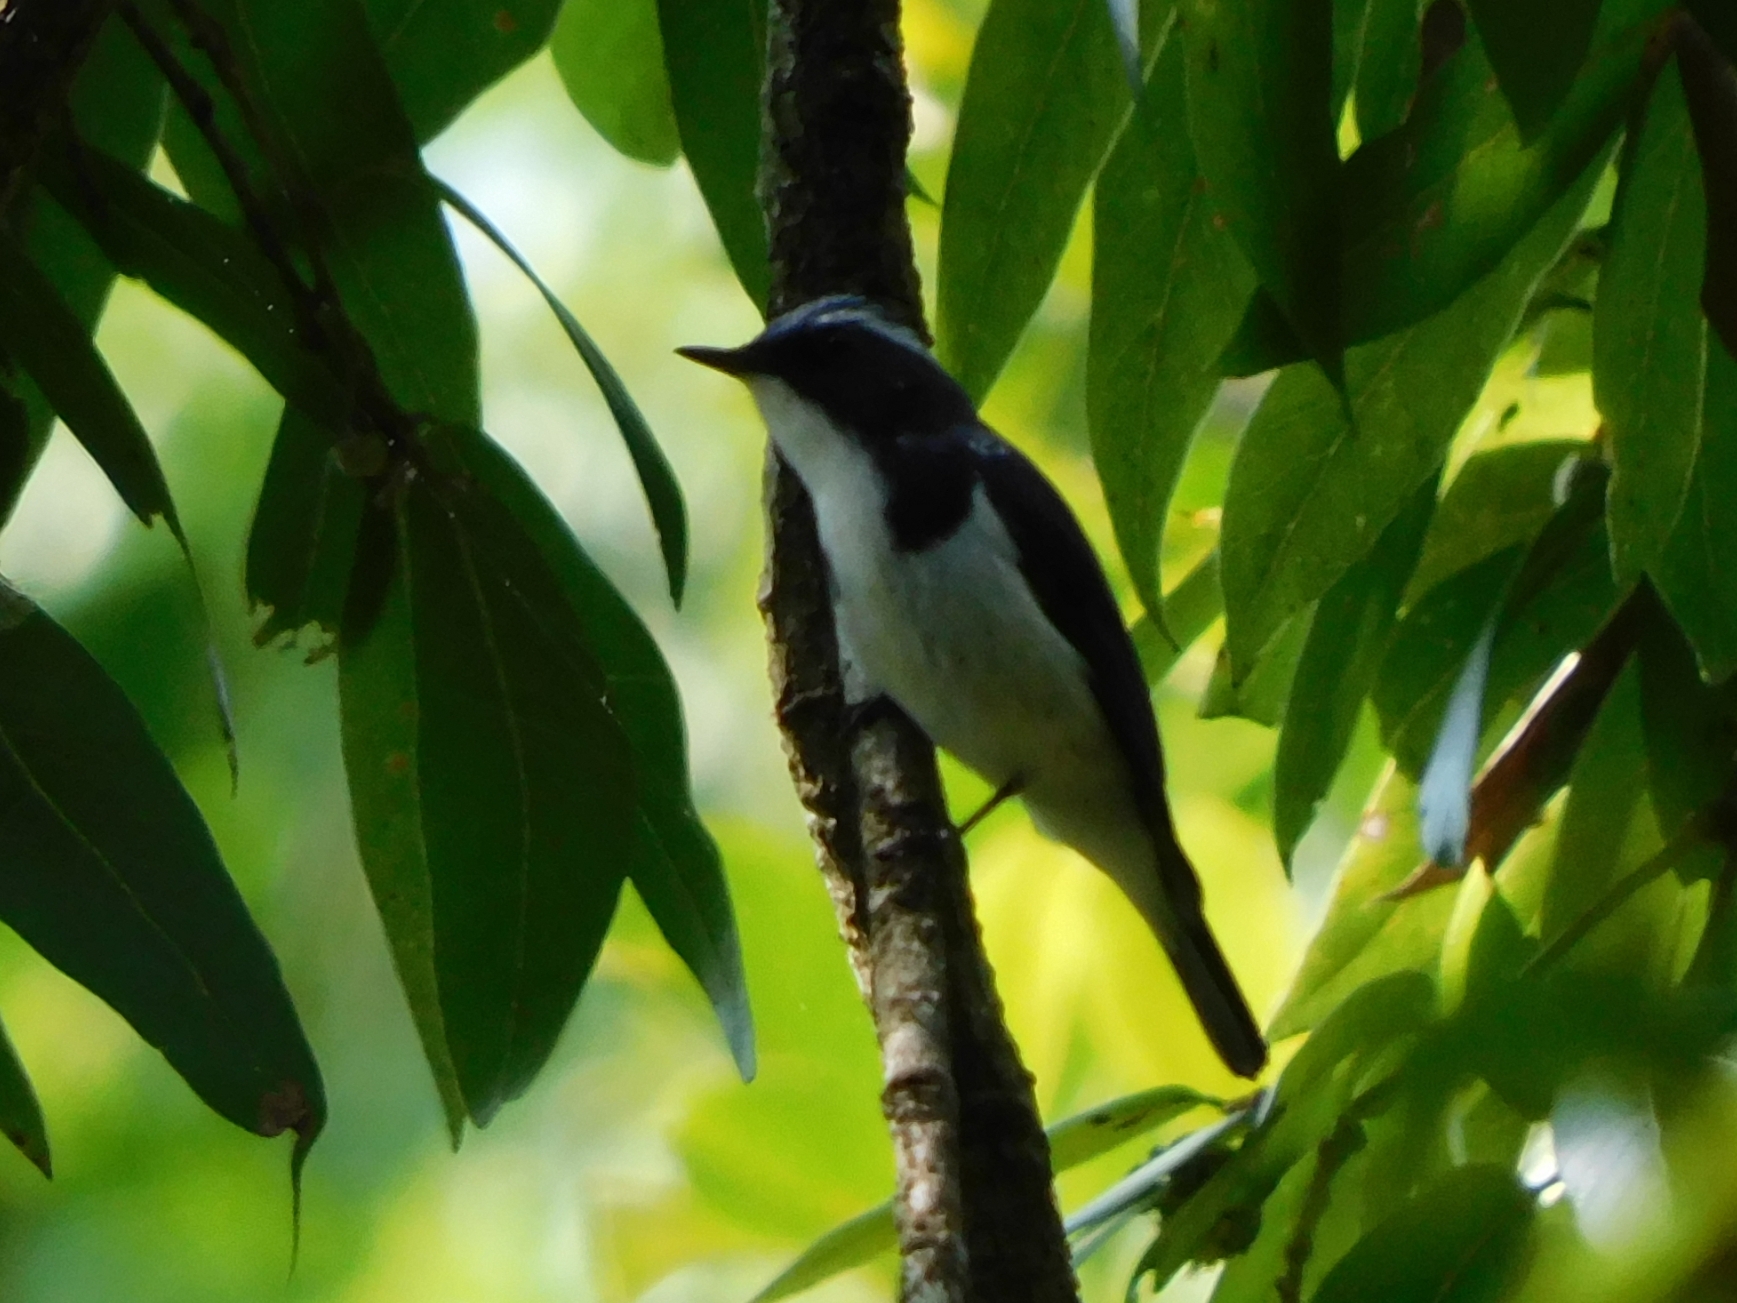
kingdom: Animalia
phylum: Chordata
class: Aves
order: Passeriformes
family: Muscicapidae
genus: Ficedula
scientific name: Ficedula superciliaris
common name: Ultramarine flycatcher
